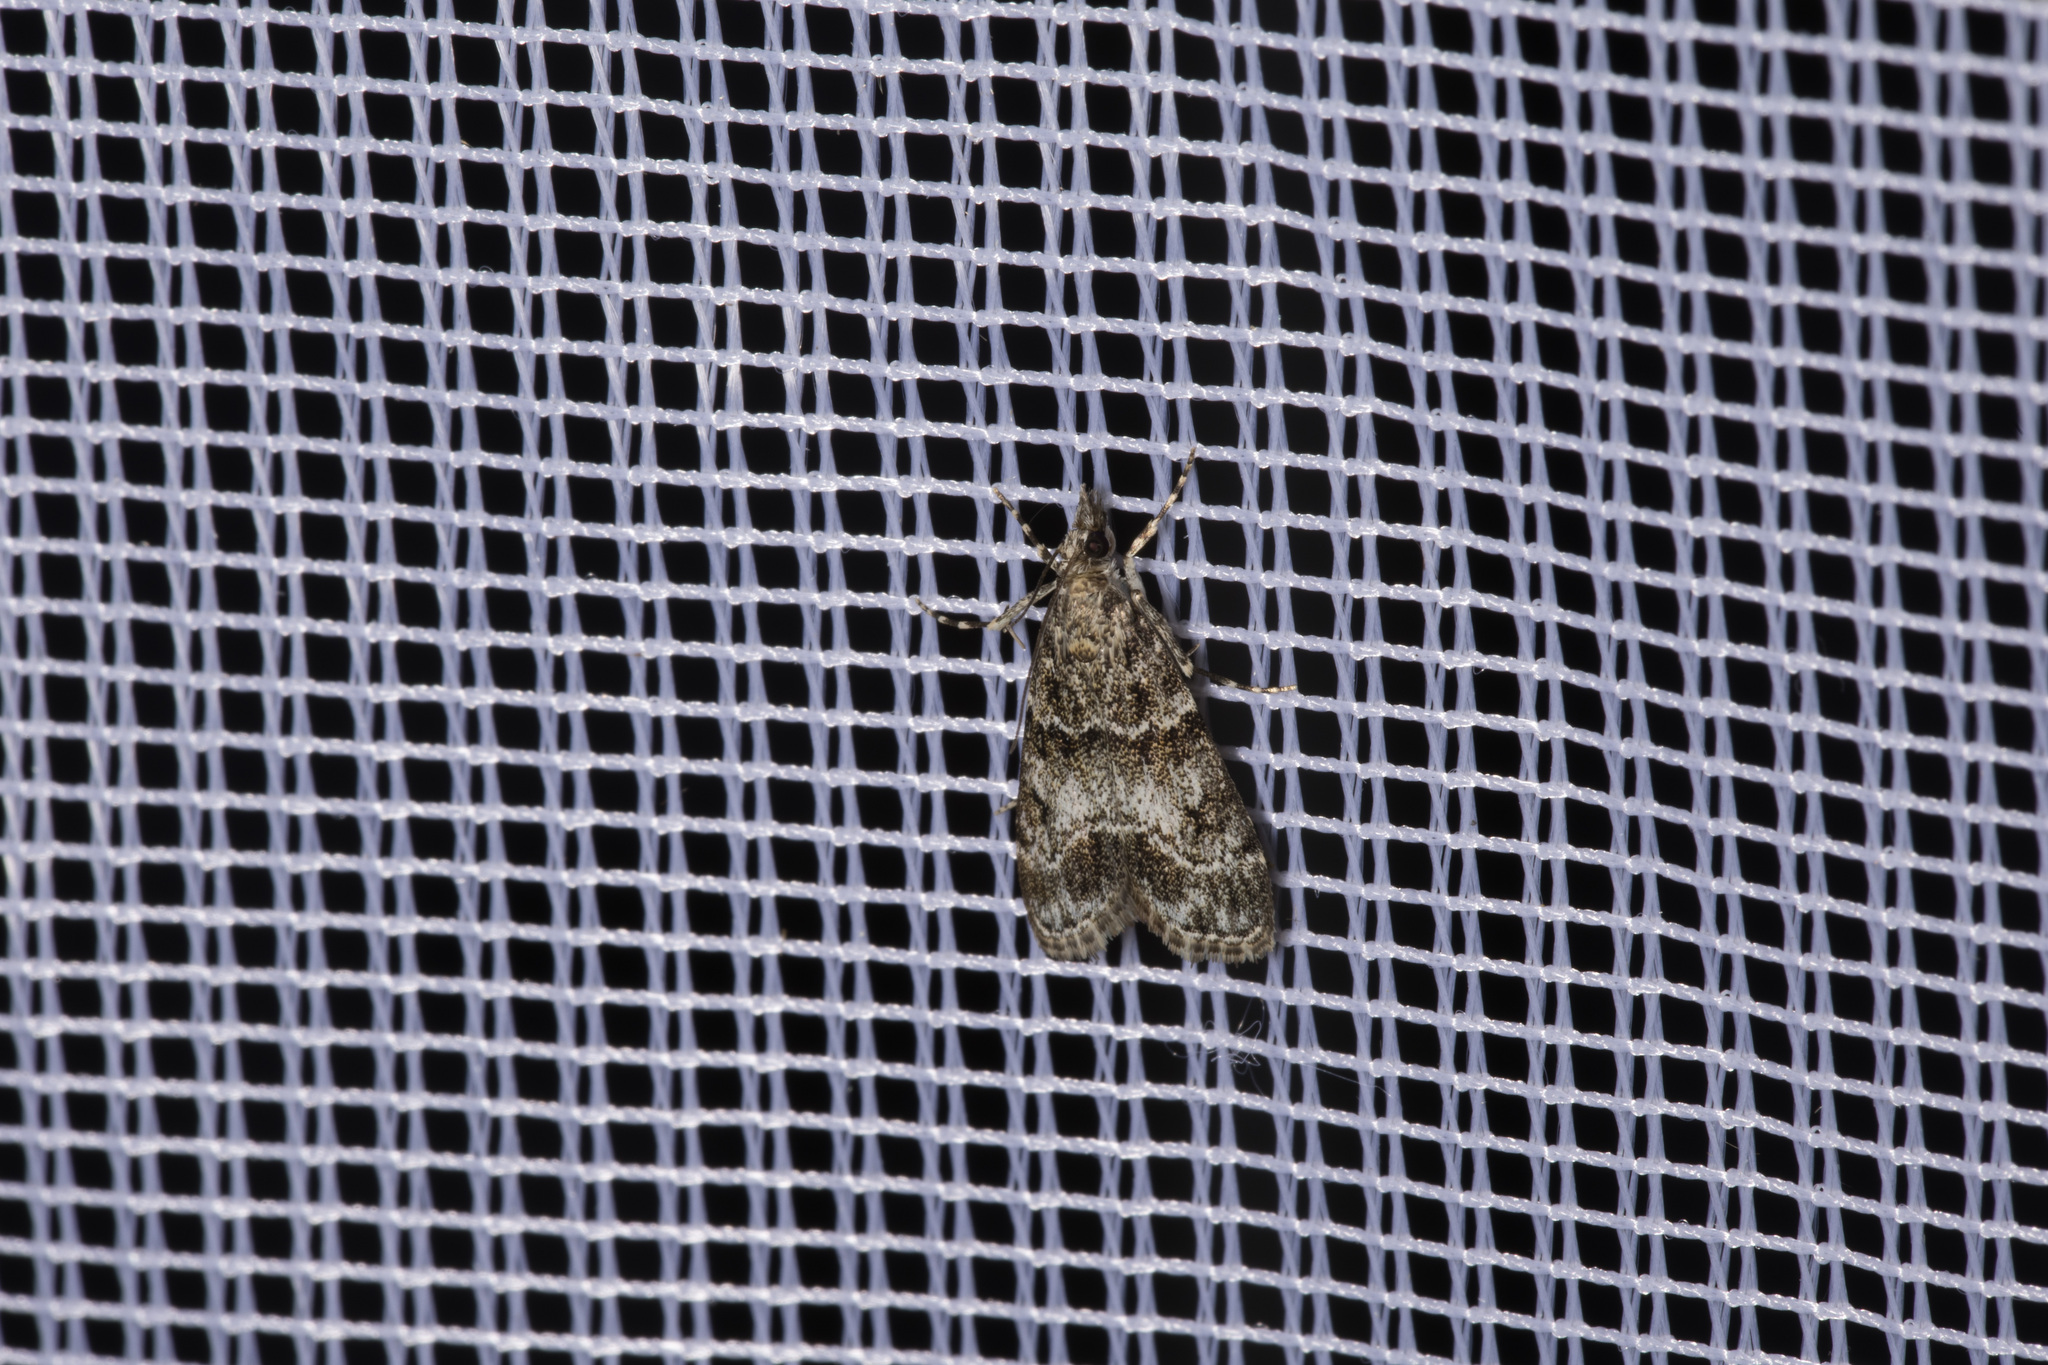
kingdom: Animalia
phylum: Arthropoda
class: Insecta
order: Lepidoptera
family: Crambidae
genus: Eudonia
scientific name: Eudonia mercurella
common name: Small grey
